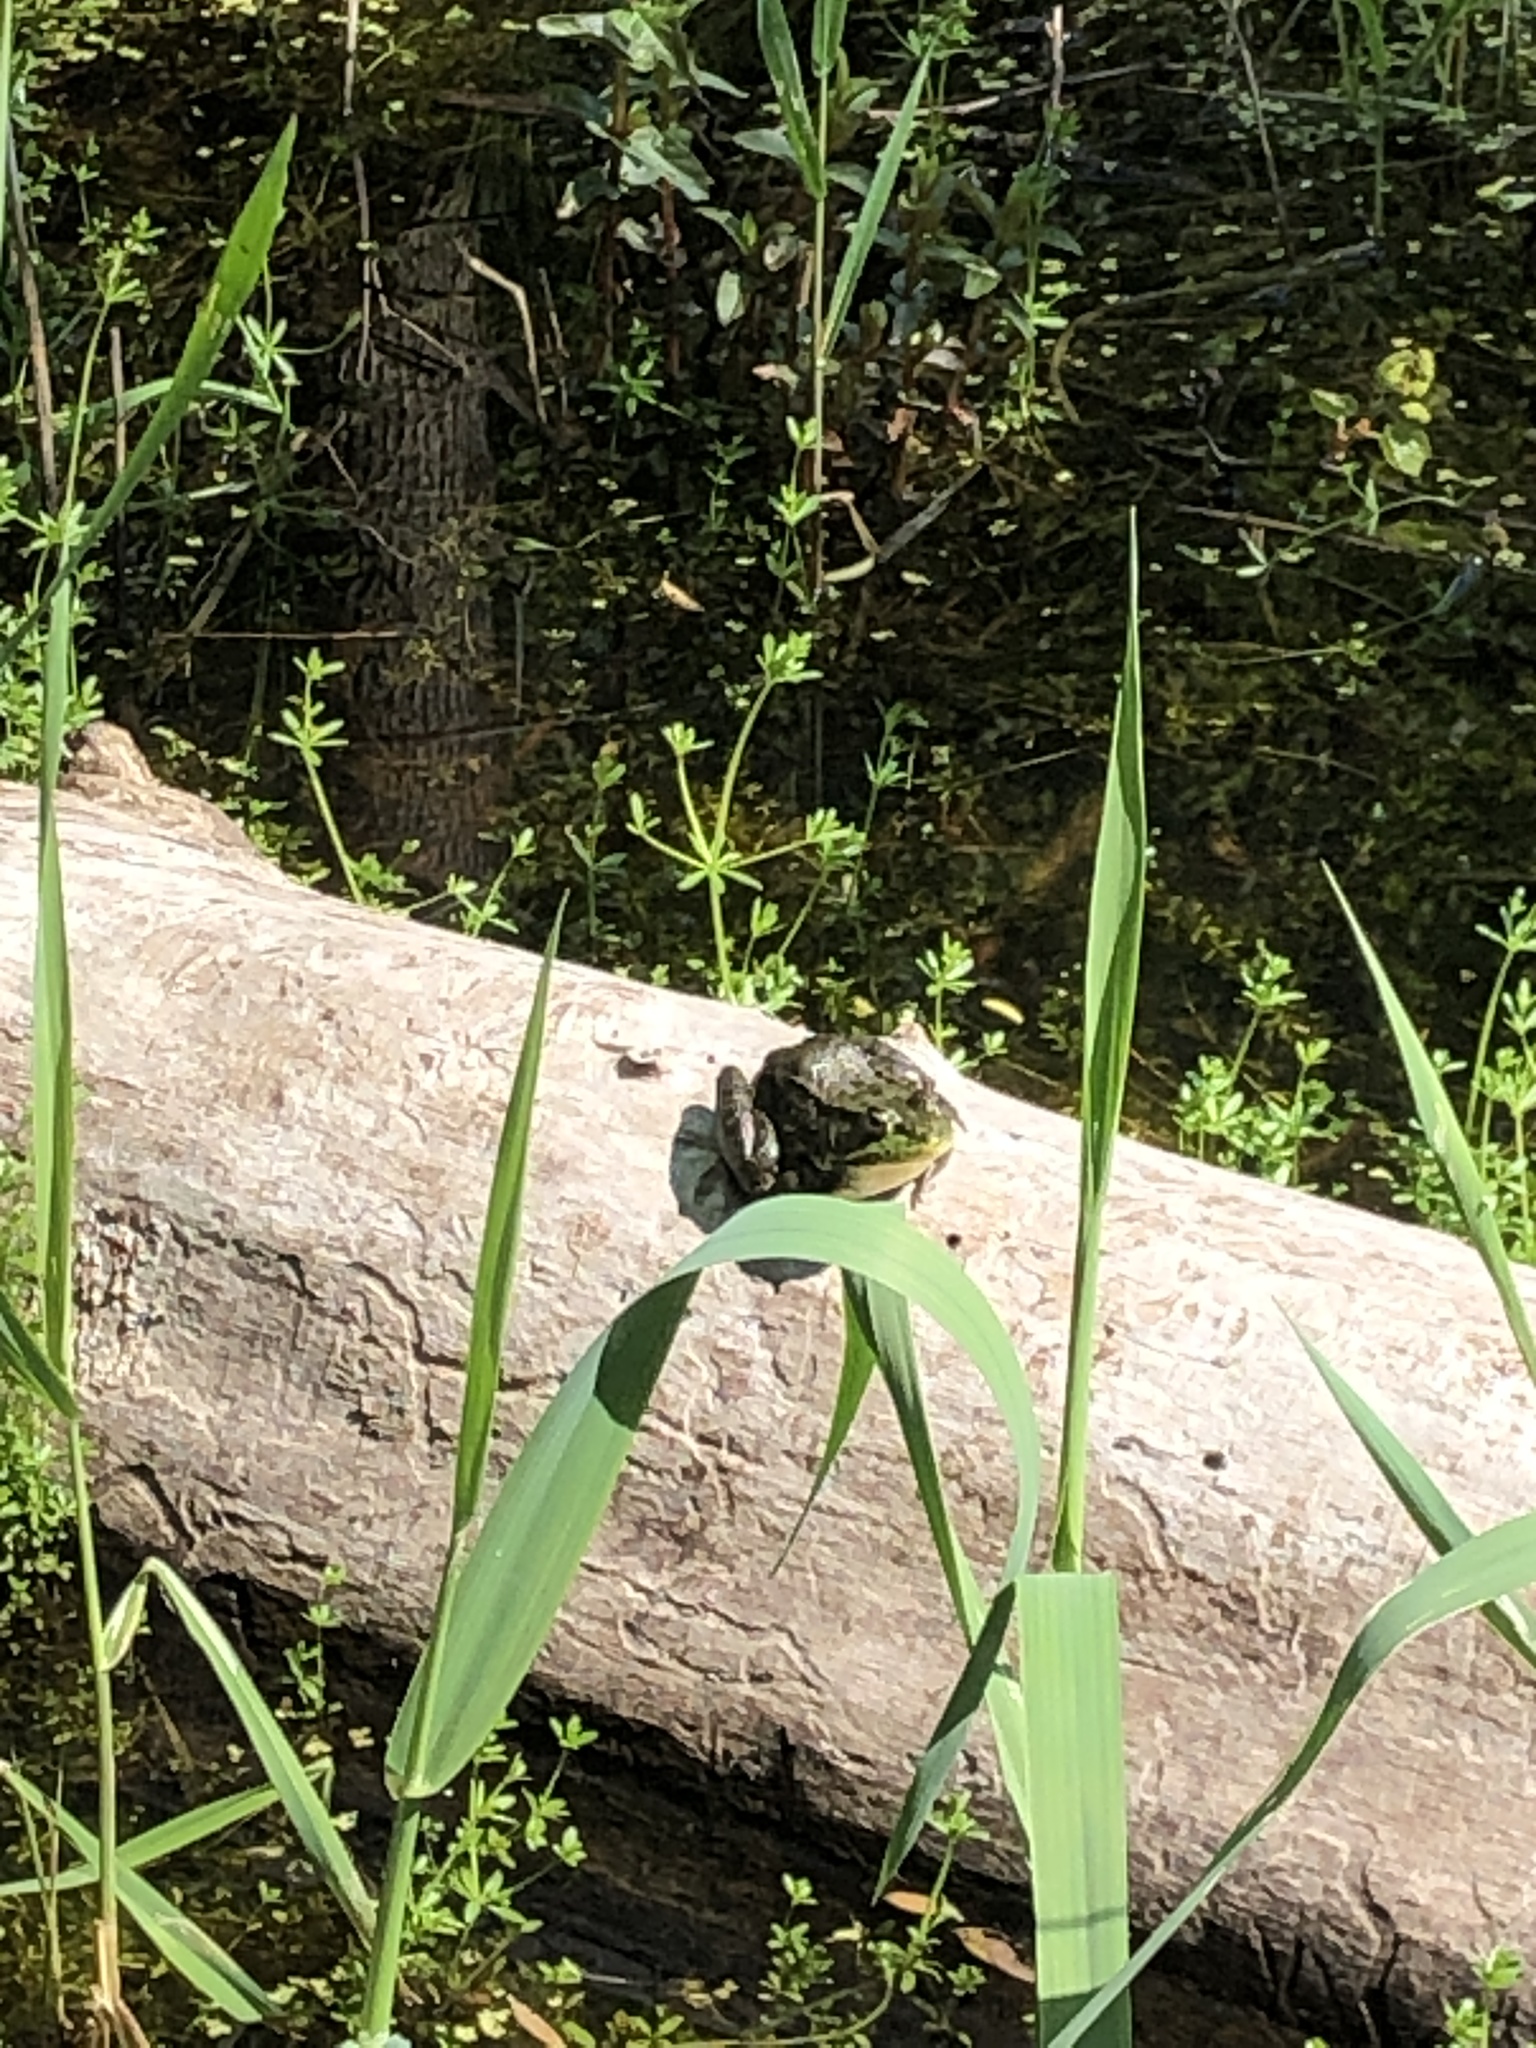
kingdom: Animalia
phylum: Chordata
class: Amphibia
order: Anura
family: Ranidae
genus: Lithobates
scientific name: Lithobates clamitans
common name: Green frog
